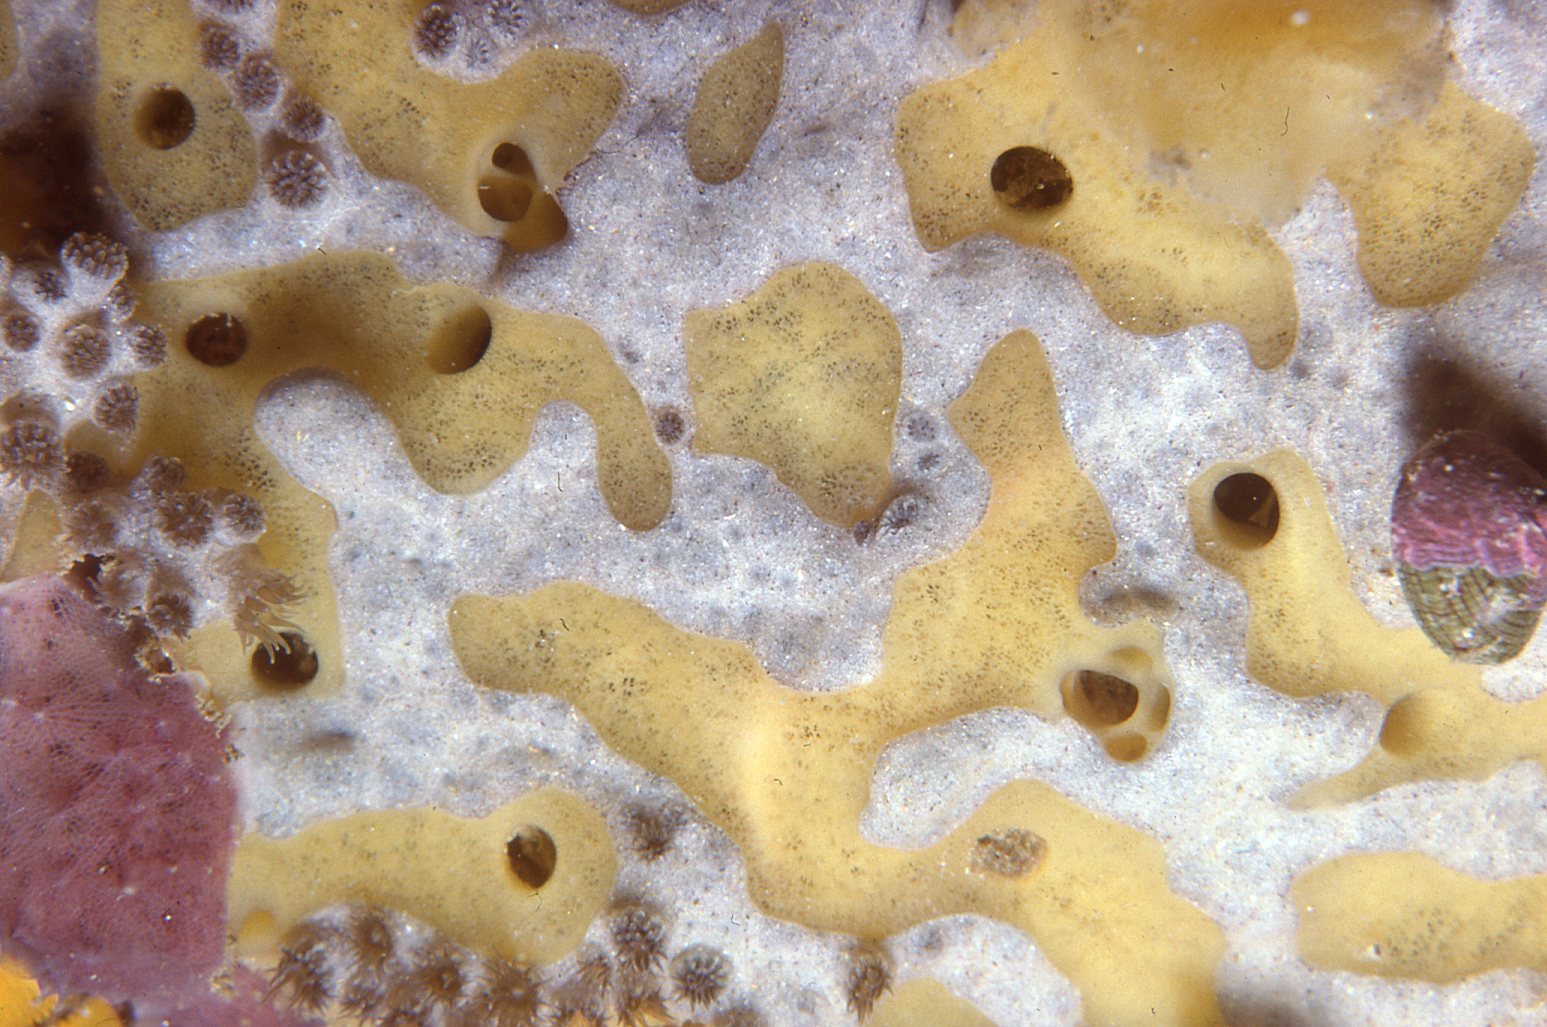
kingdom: Animalia
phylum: Cnidaria
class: Anthozoa
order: Zoantharia
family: Epizoanthidae
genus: Epizoanthus
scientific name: Epizoanthus sabulosus
